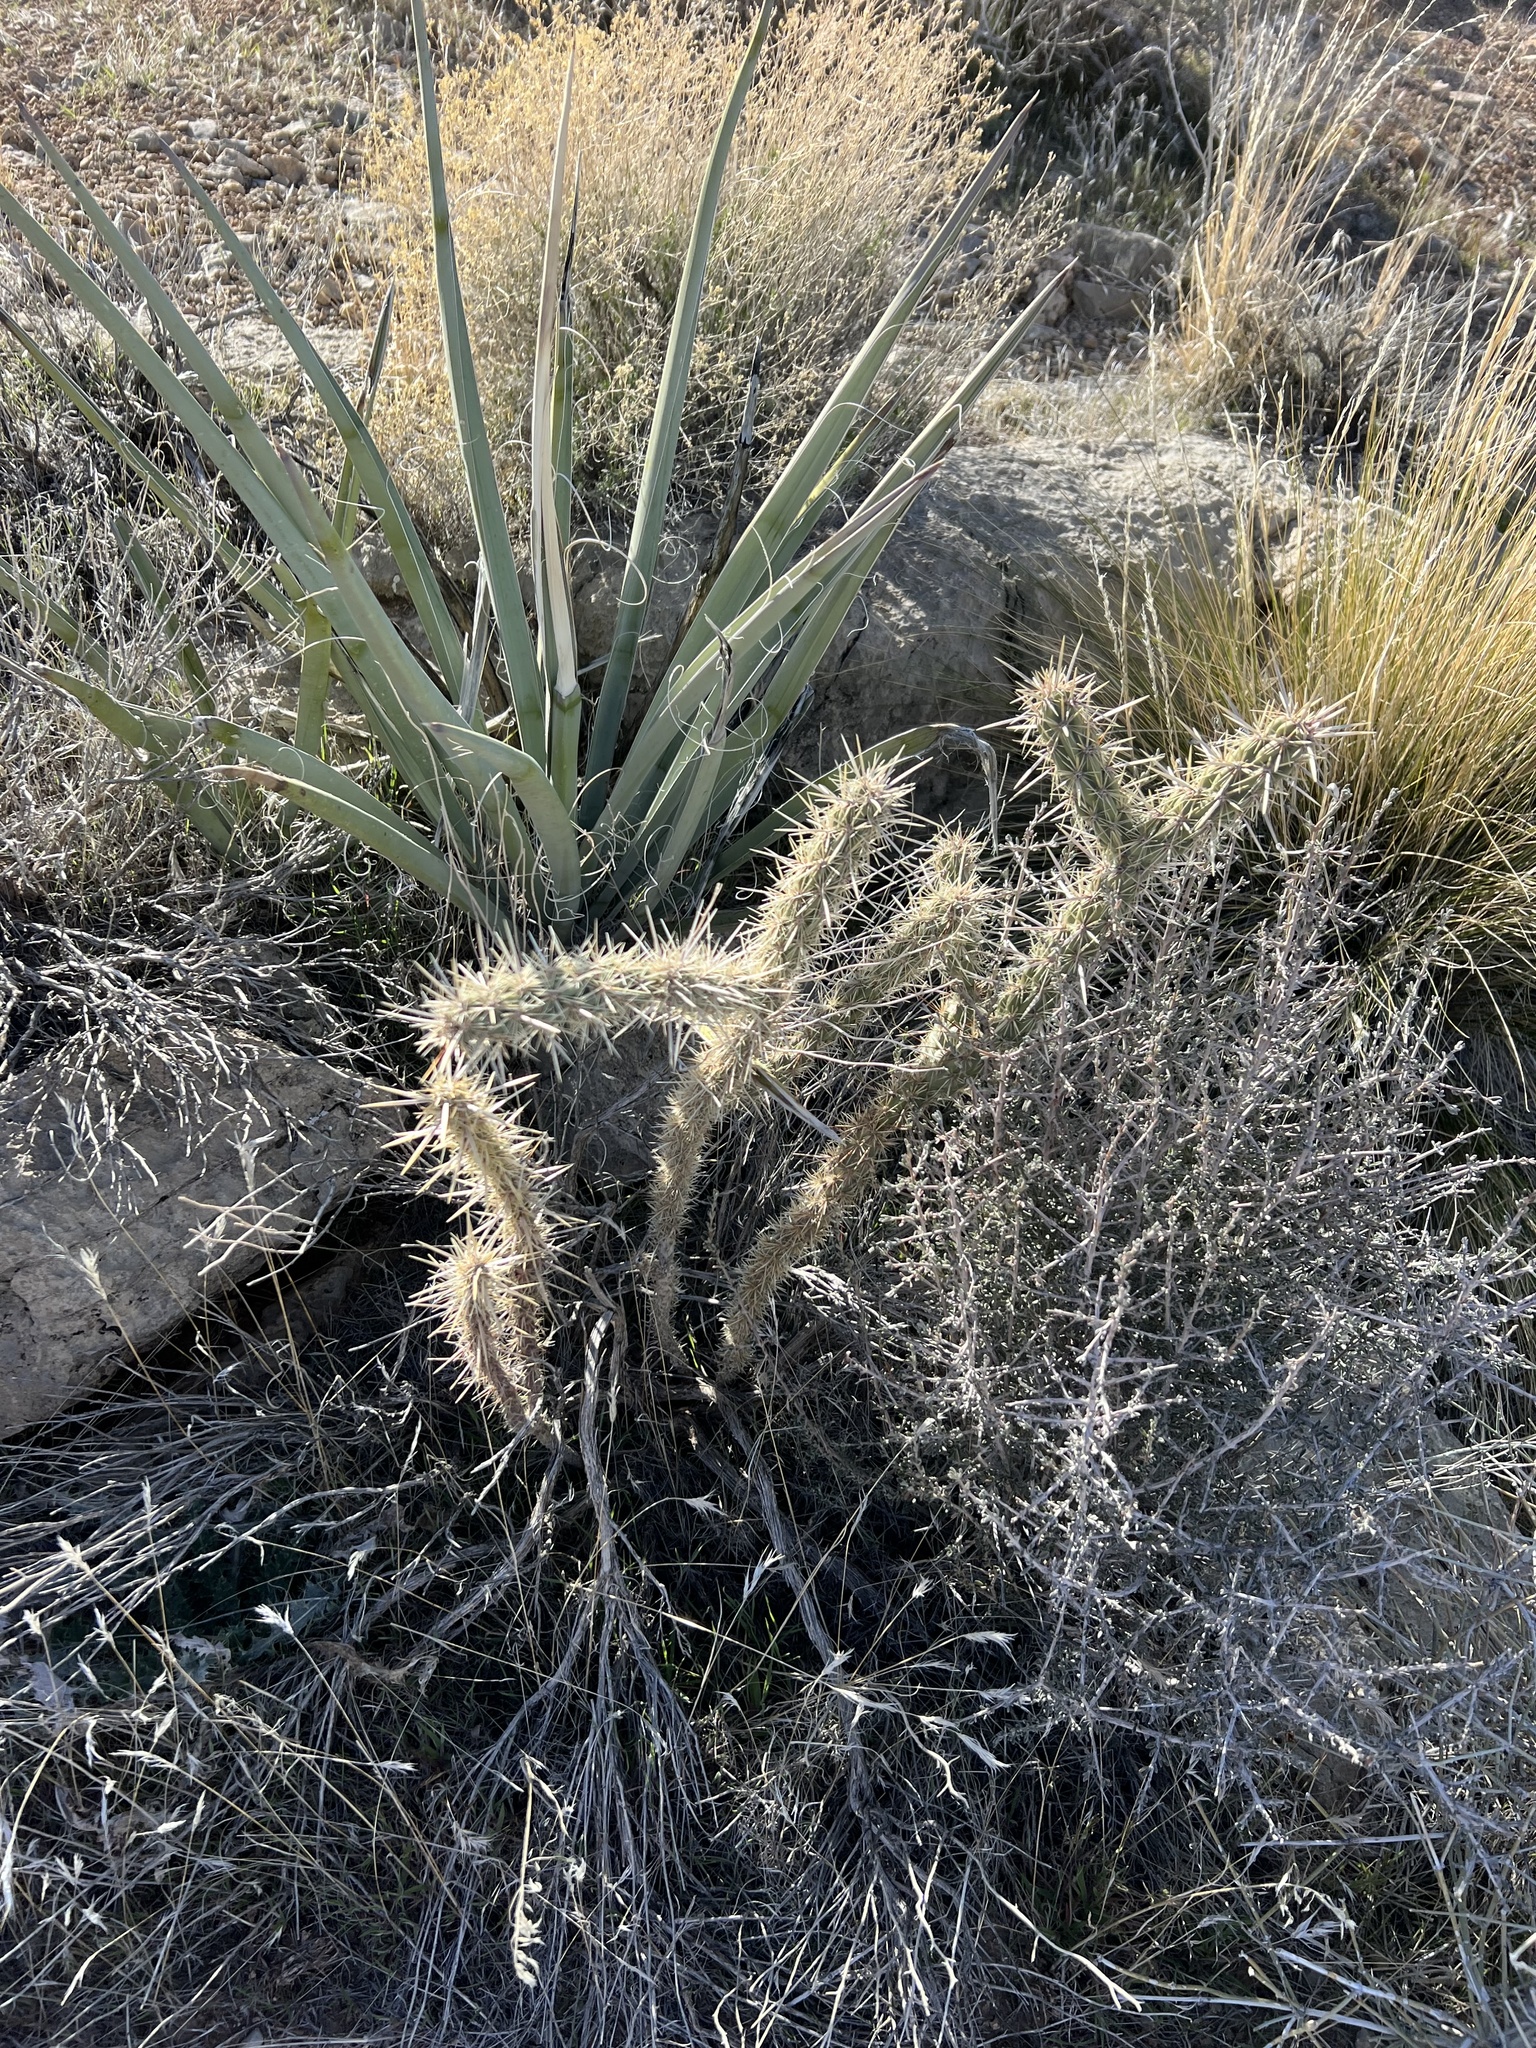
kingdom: Plantae
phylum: Tracheophyta
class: Magnoliopsida
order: Caryophyllales
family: Cactaceae
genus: Cylindropuntia
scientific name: Cylindropuntia acanthocarpa
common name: Buckhorn cholla
